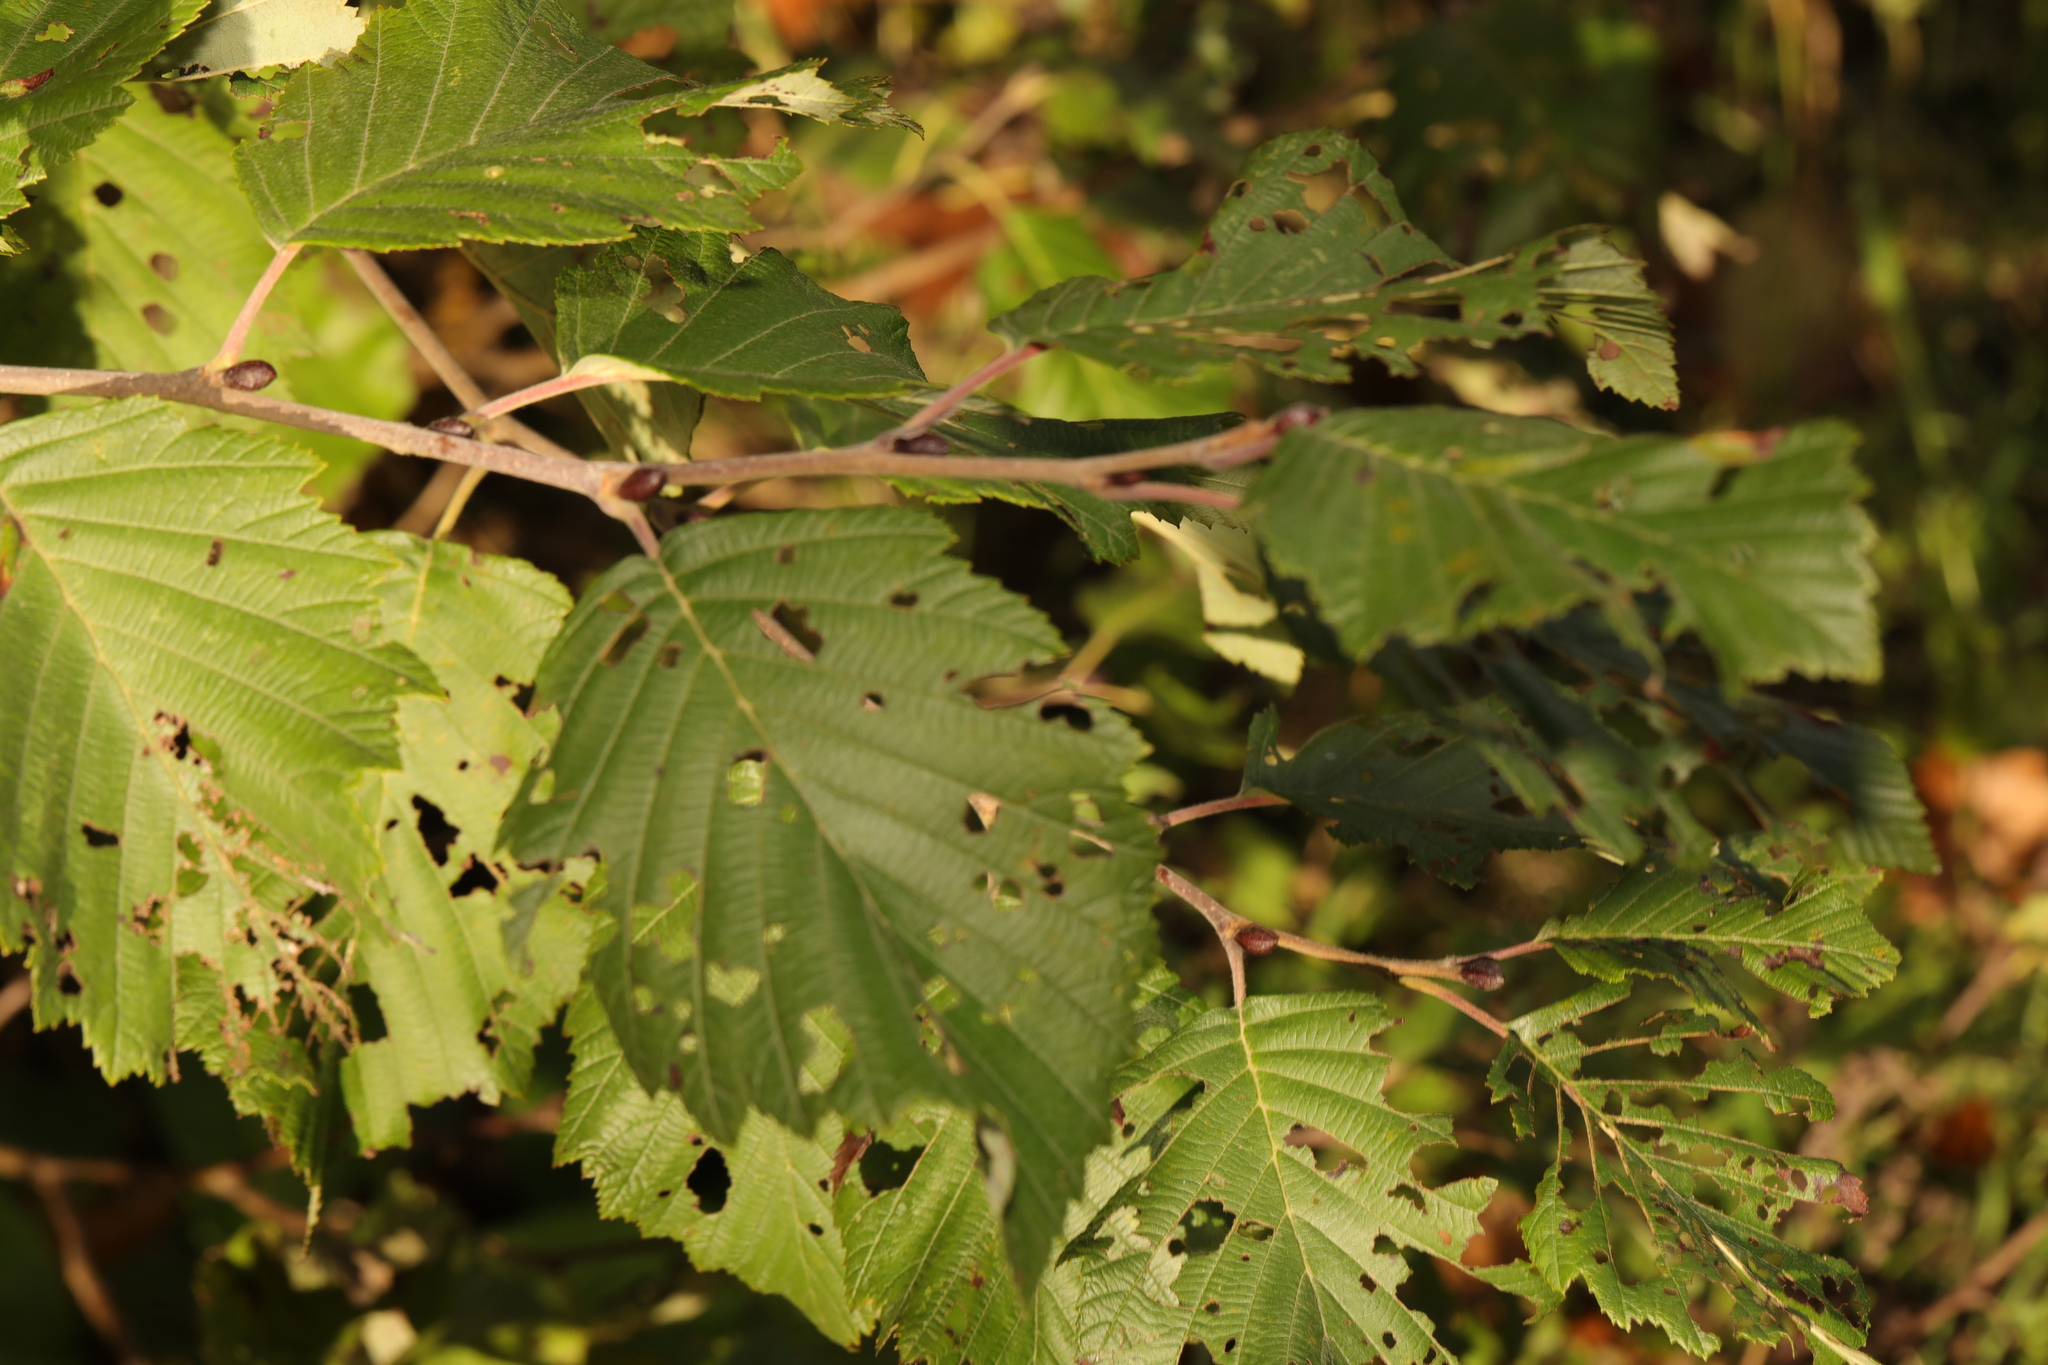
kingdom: Plantae
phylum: Tracheophyta
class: Magnoliopsida
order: Fagales
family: Betulaceae
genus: Alnus
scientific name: Alnus incana
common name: Grey alder
